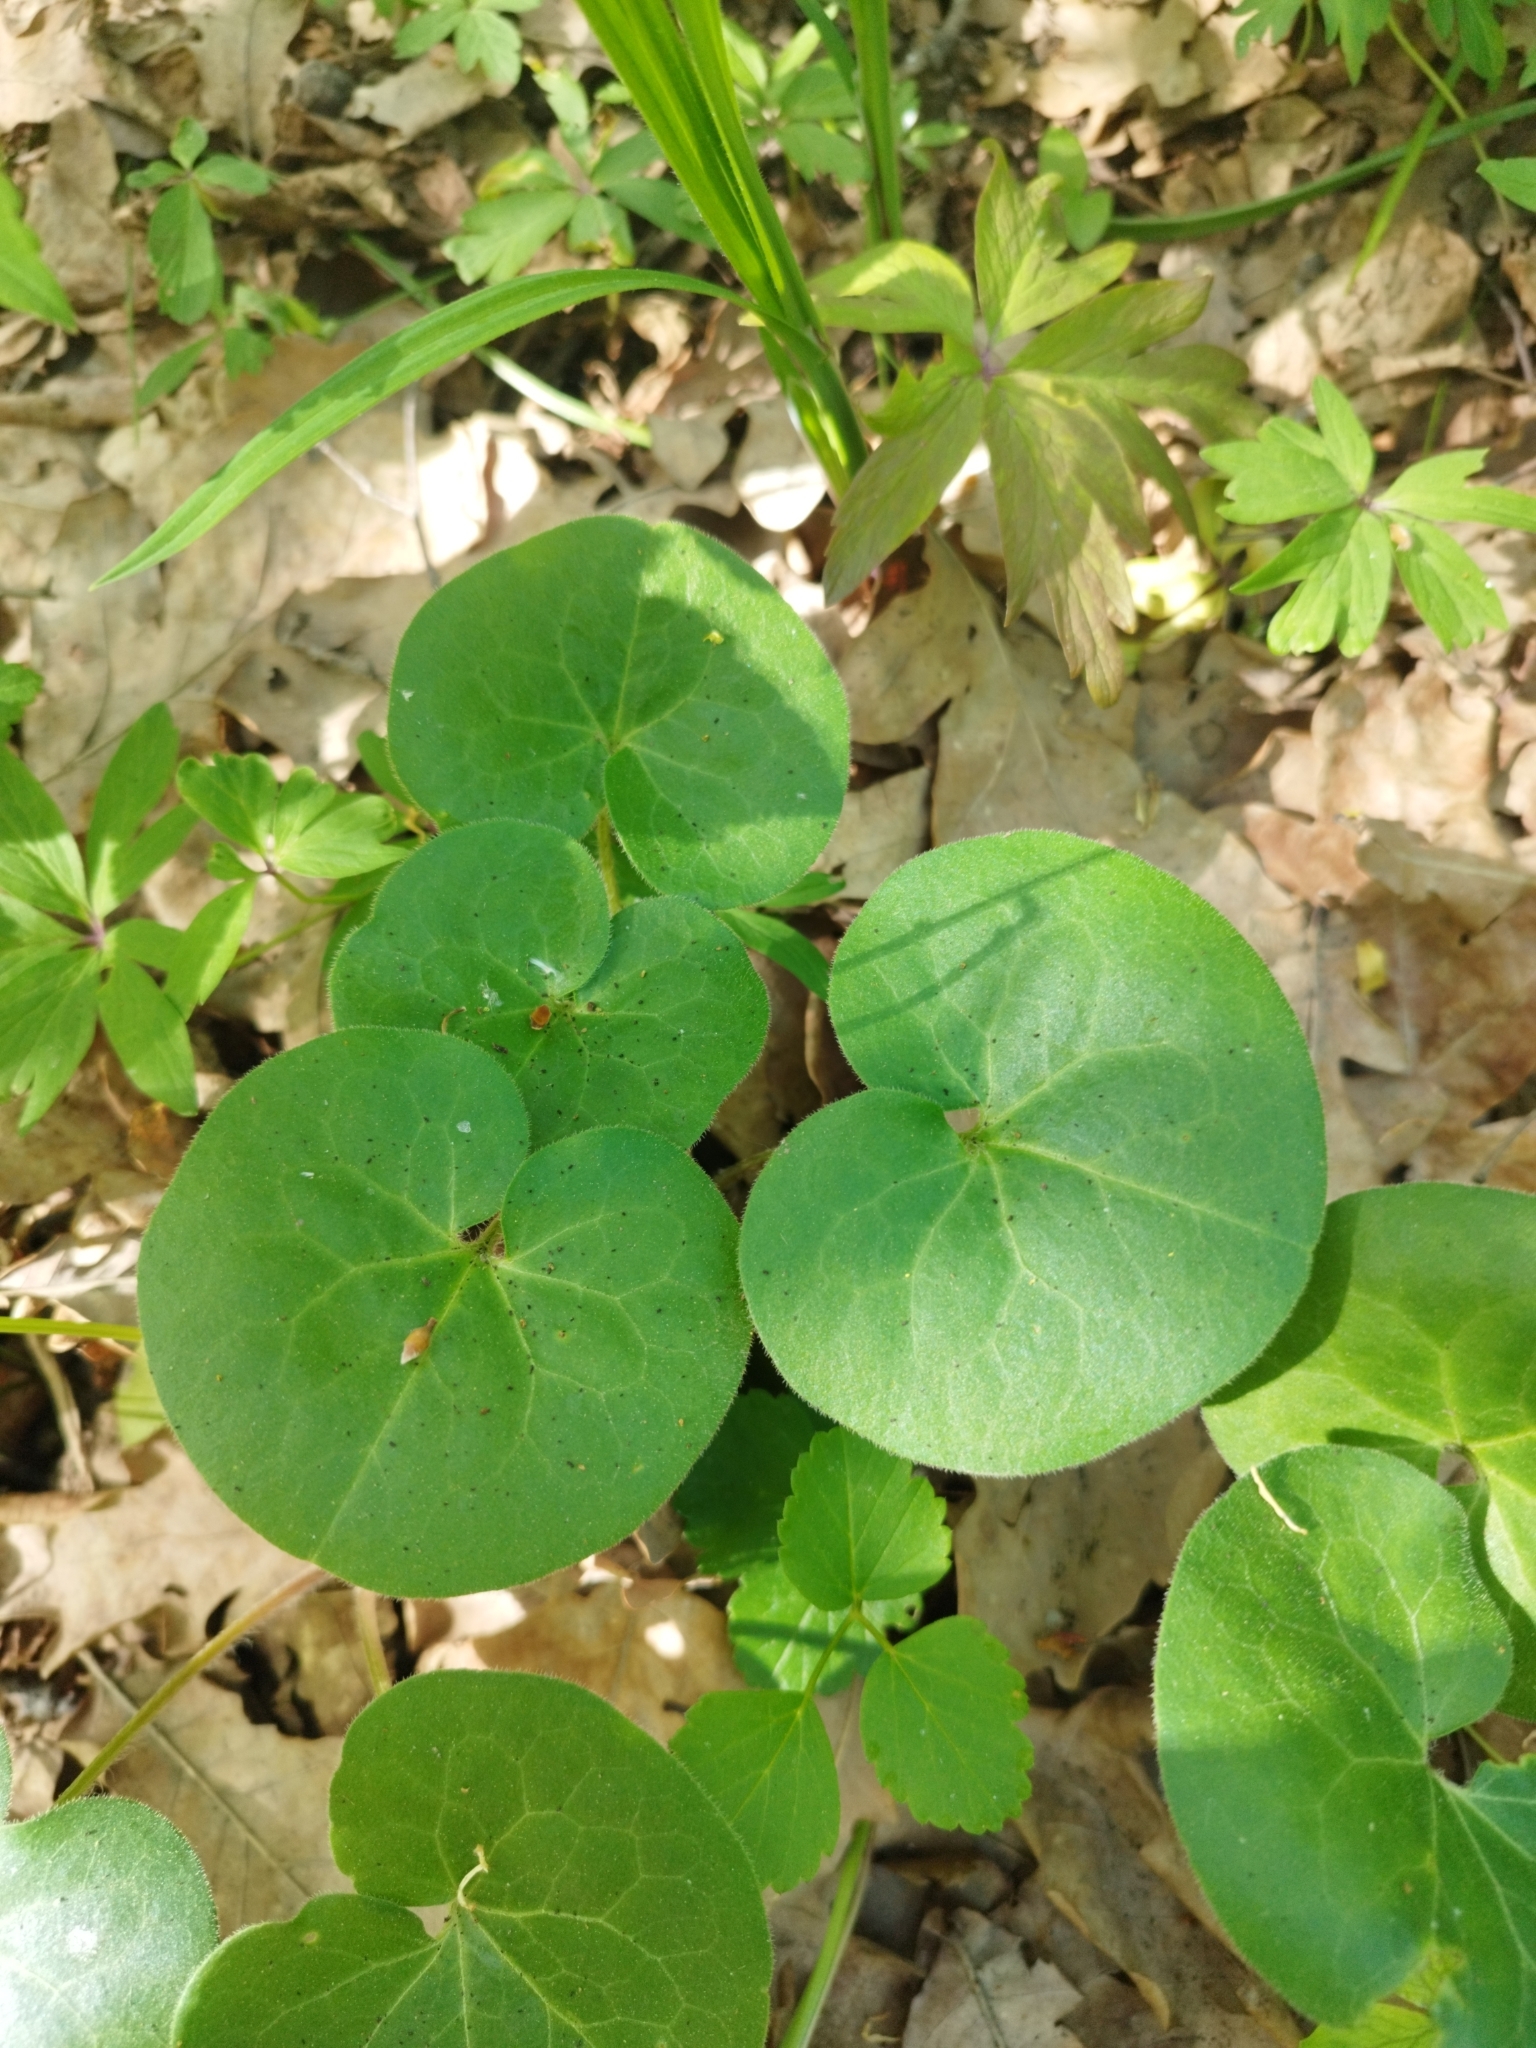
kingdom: Plantae
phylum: Tracheophyta
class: Magnoliopsida
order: Piperales
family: Aristolochiaceae
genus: Asarum
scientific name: Asarum europaeum
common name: Asarabacca
